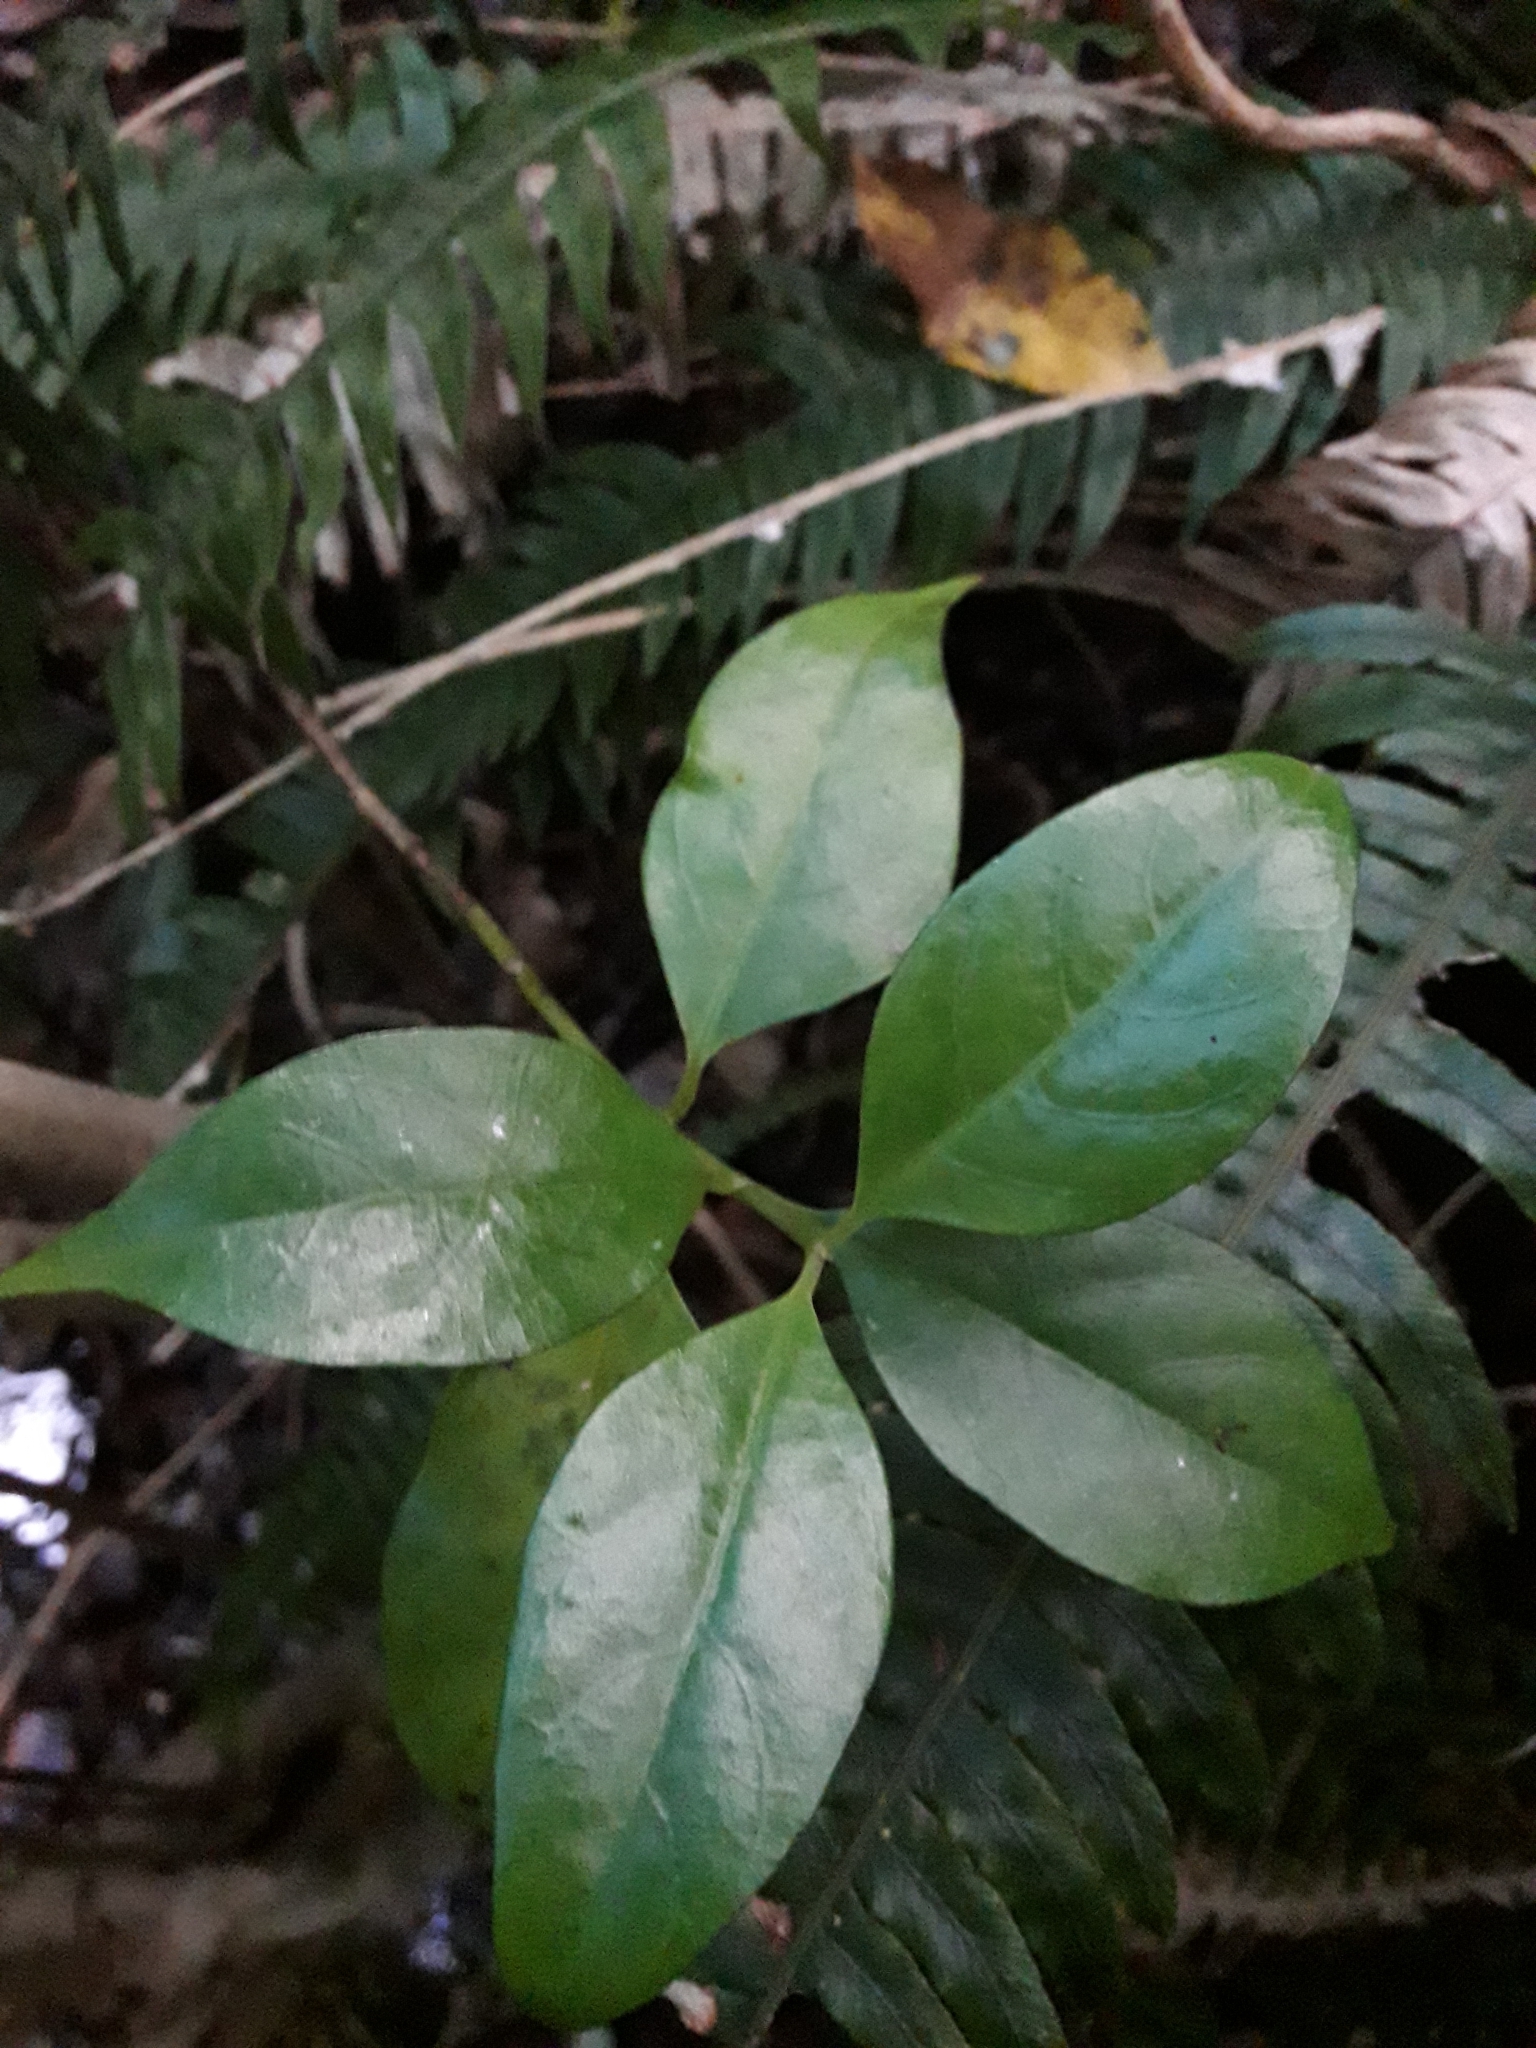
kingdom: Plantae
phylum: Tracheophyta
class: Magnoliopsida
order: Gentianales
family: Loganiaceae
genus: Geniostoma
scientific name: Geniostoma ligustrifolium
